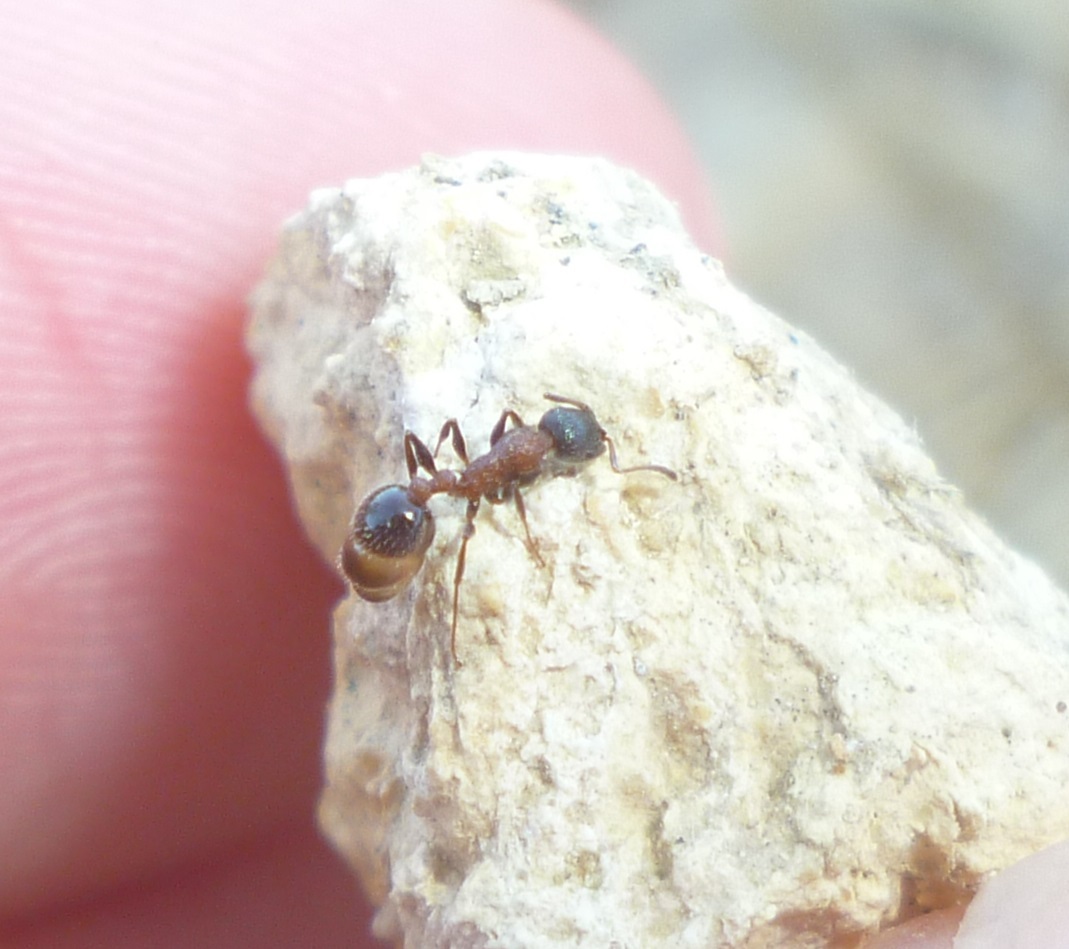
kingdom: Animalia
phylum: Arthropoda
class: Insecta
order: Hymenoptera
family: Formicidae
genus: Leptothorax
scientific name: Leptothorax semiruber
